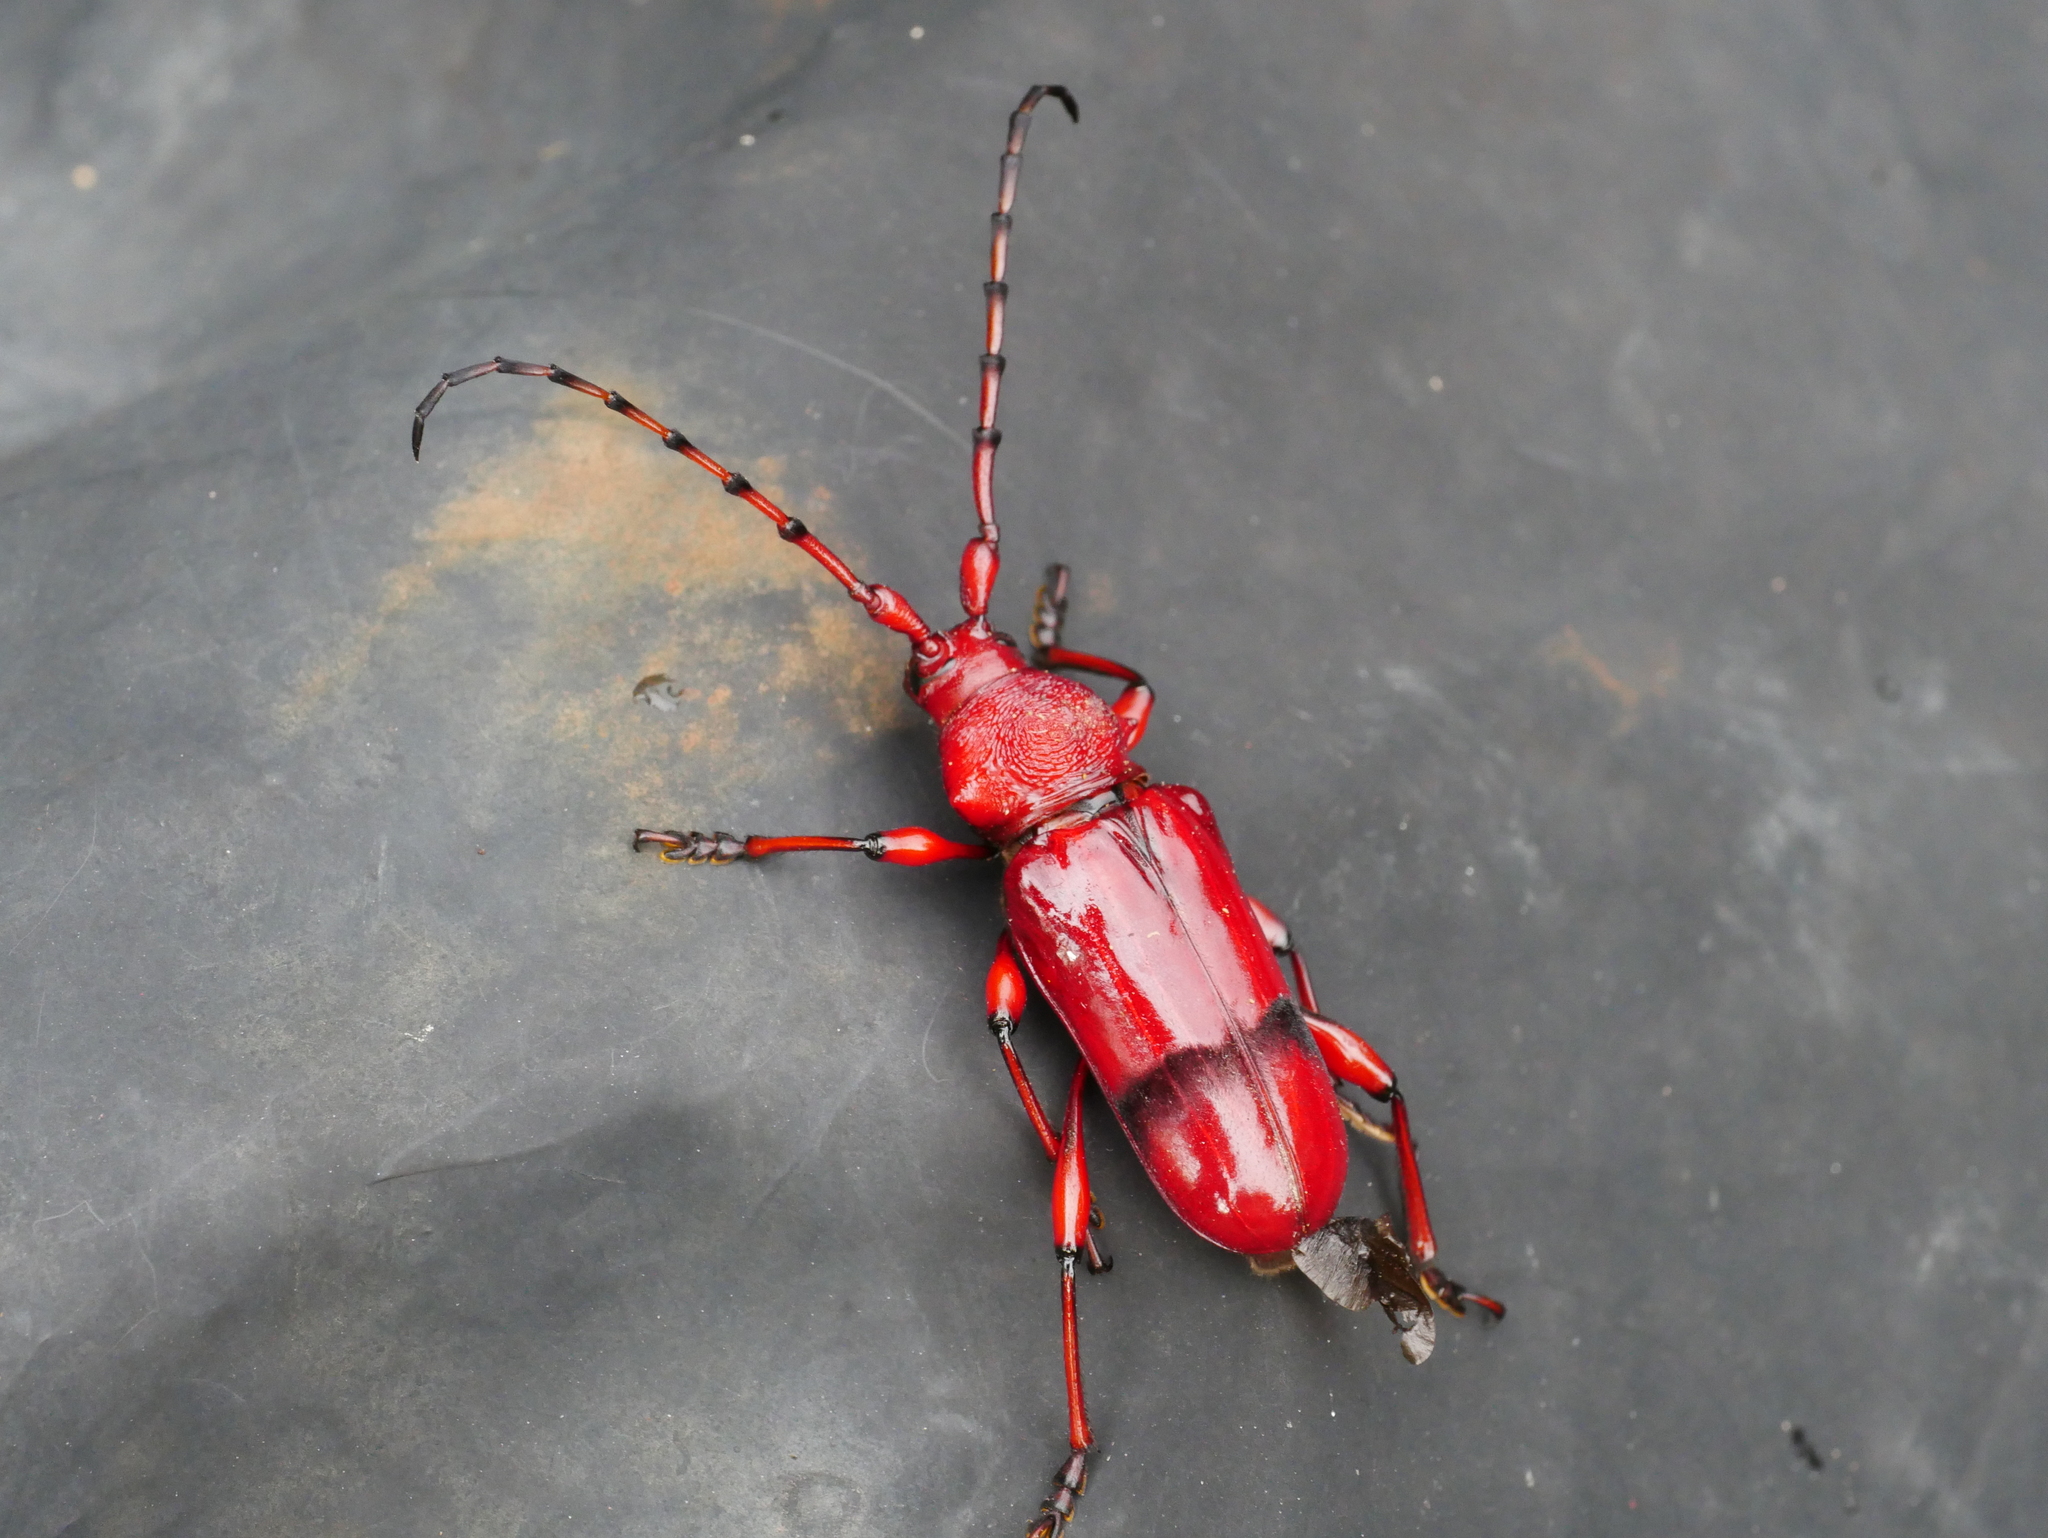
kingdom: Animalia
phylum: Arthropoda
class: Insecta
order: Coleoptera
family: Cerambycidae
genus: Dicelosternus
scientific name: Dicelosternus corallinus
